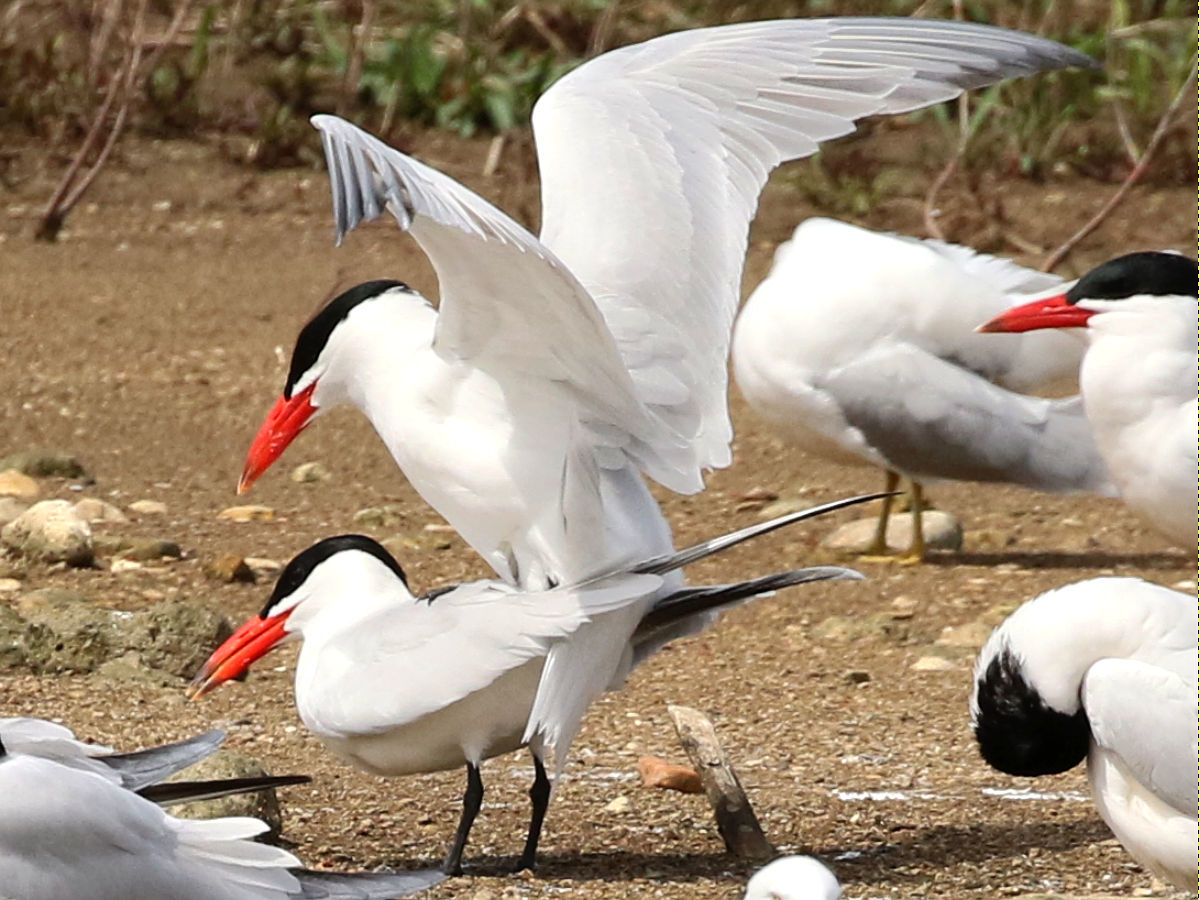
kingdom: Animalia
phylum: Chordata
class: Aves
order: Charadriiformes
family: Laridae
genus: Hydroprogne
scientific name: Hydroprogne caspia
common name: Caspian tern
